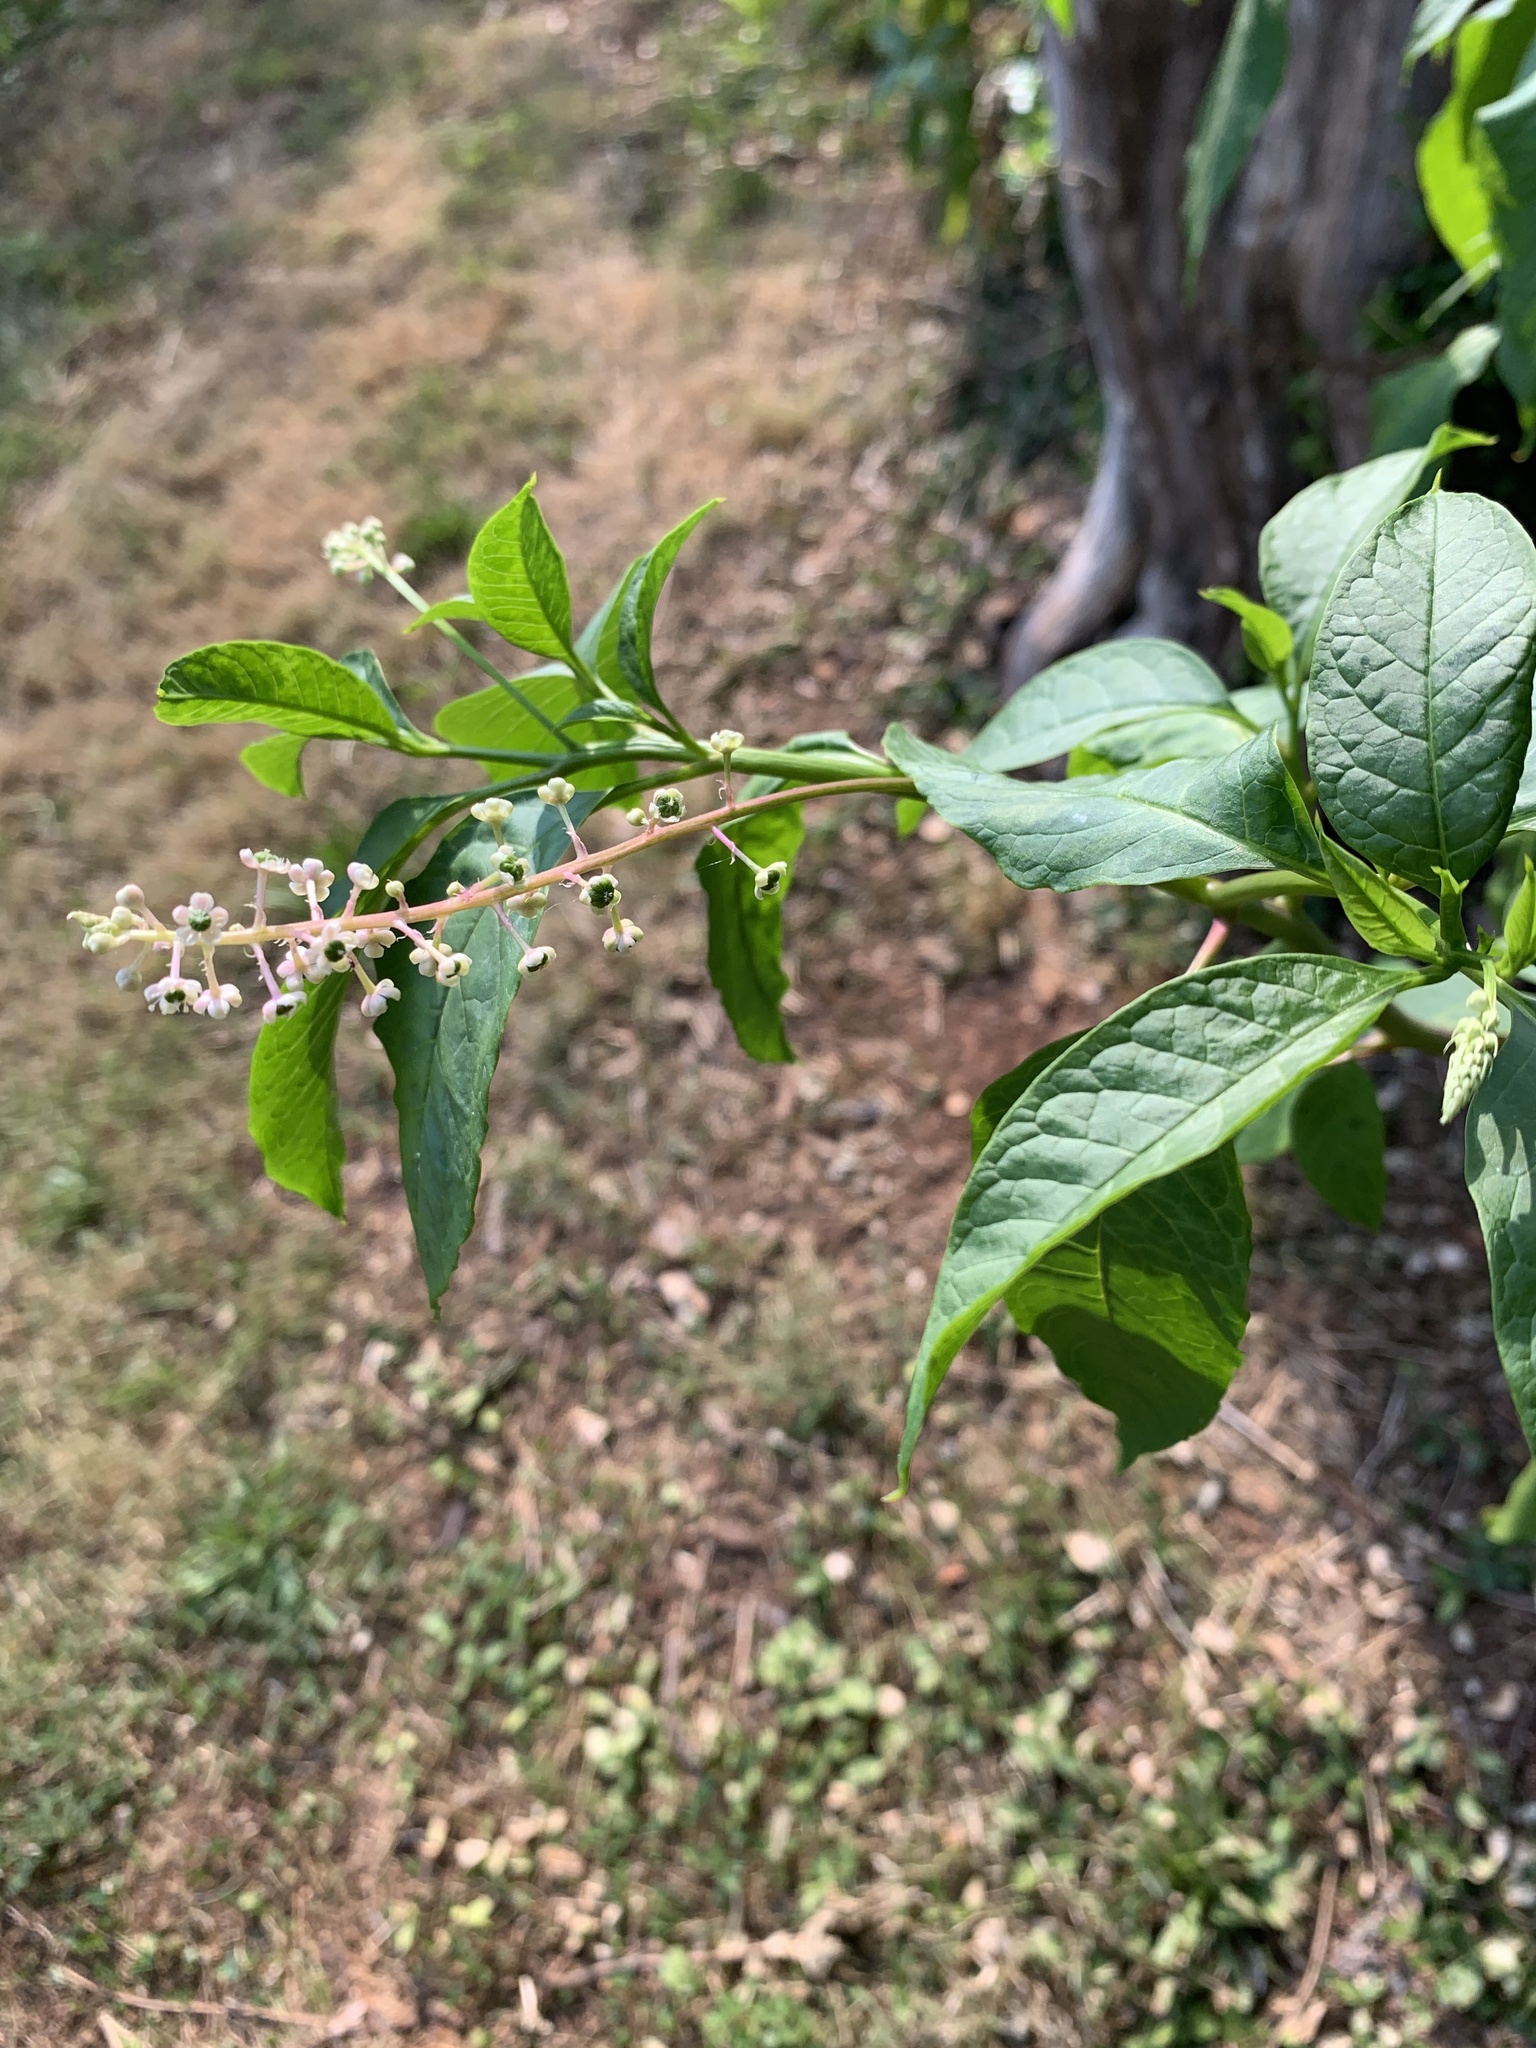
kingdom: Plantae
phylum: Tracheophyta
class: Magnoliopsida
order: Caryophyllales
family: Phytolaccaceae
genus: Phytolacca
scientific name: Phytolacca americana
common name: American pokeweed
